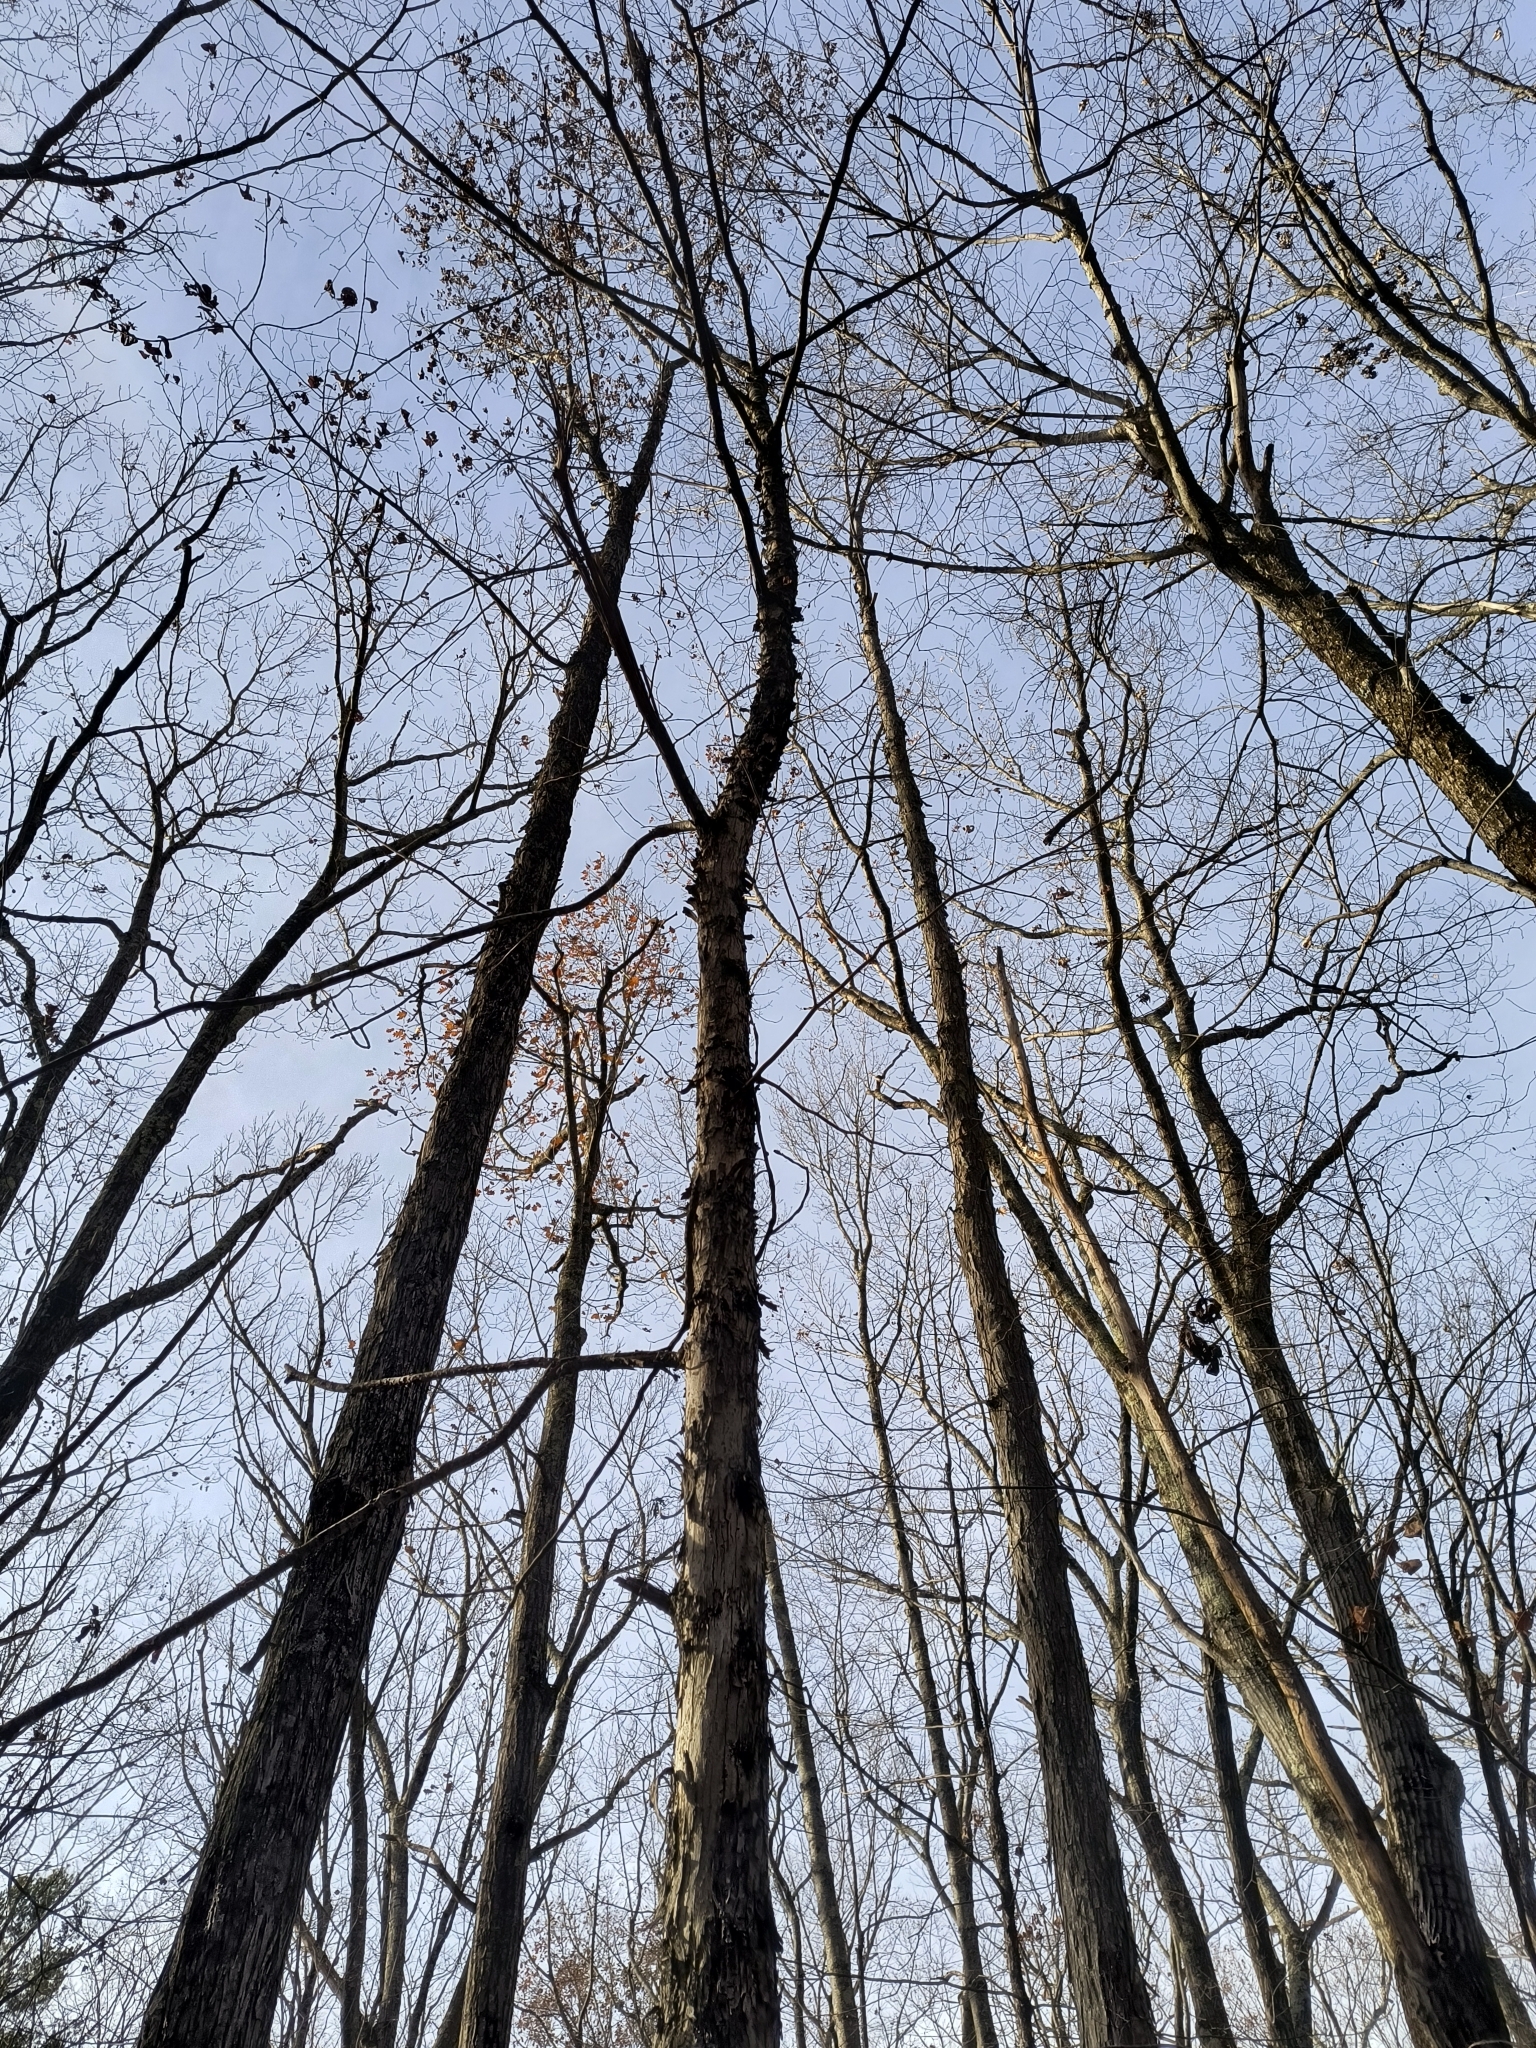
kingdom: Plantae
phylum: Tracheophyta
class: Magnoliopsida
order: Fagales
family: Betulaceae
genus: Ostrya
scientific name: Ostrya virginiana
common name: Ironwood
